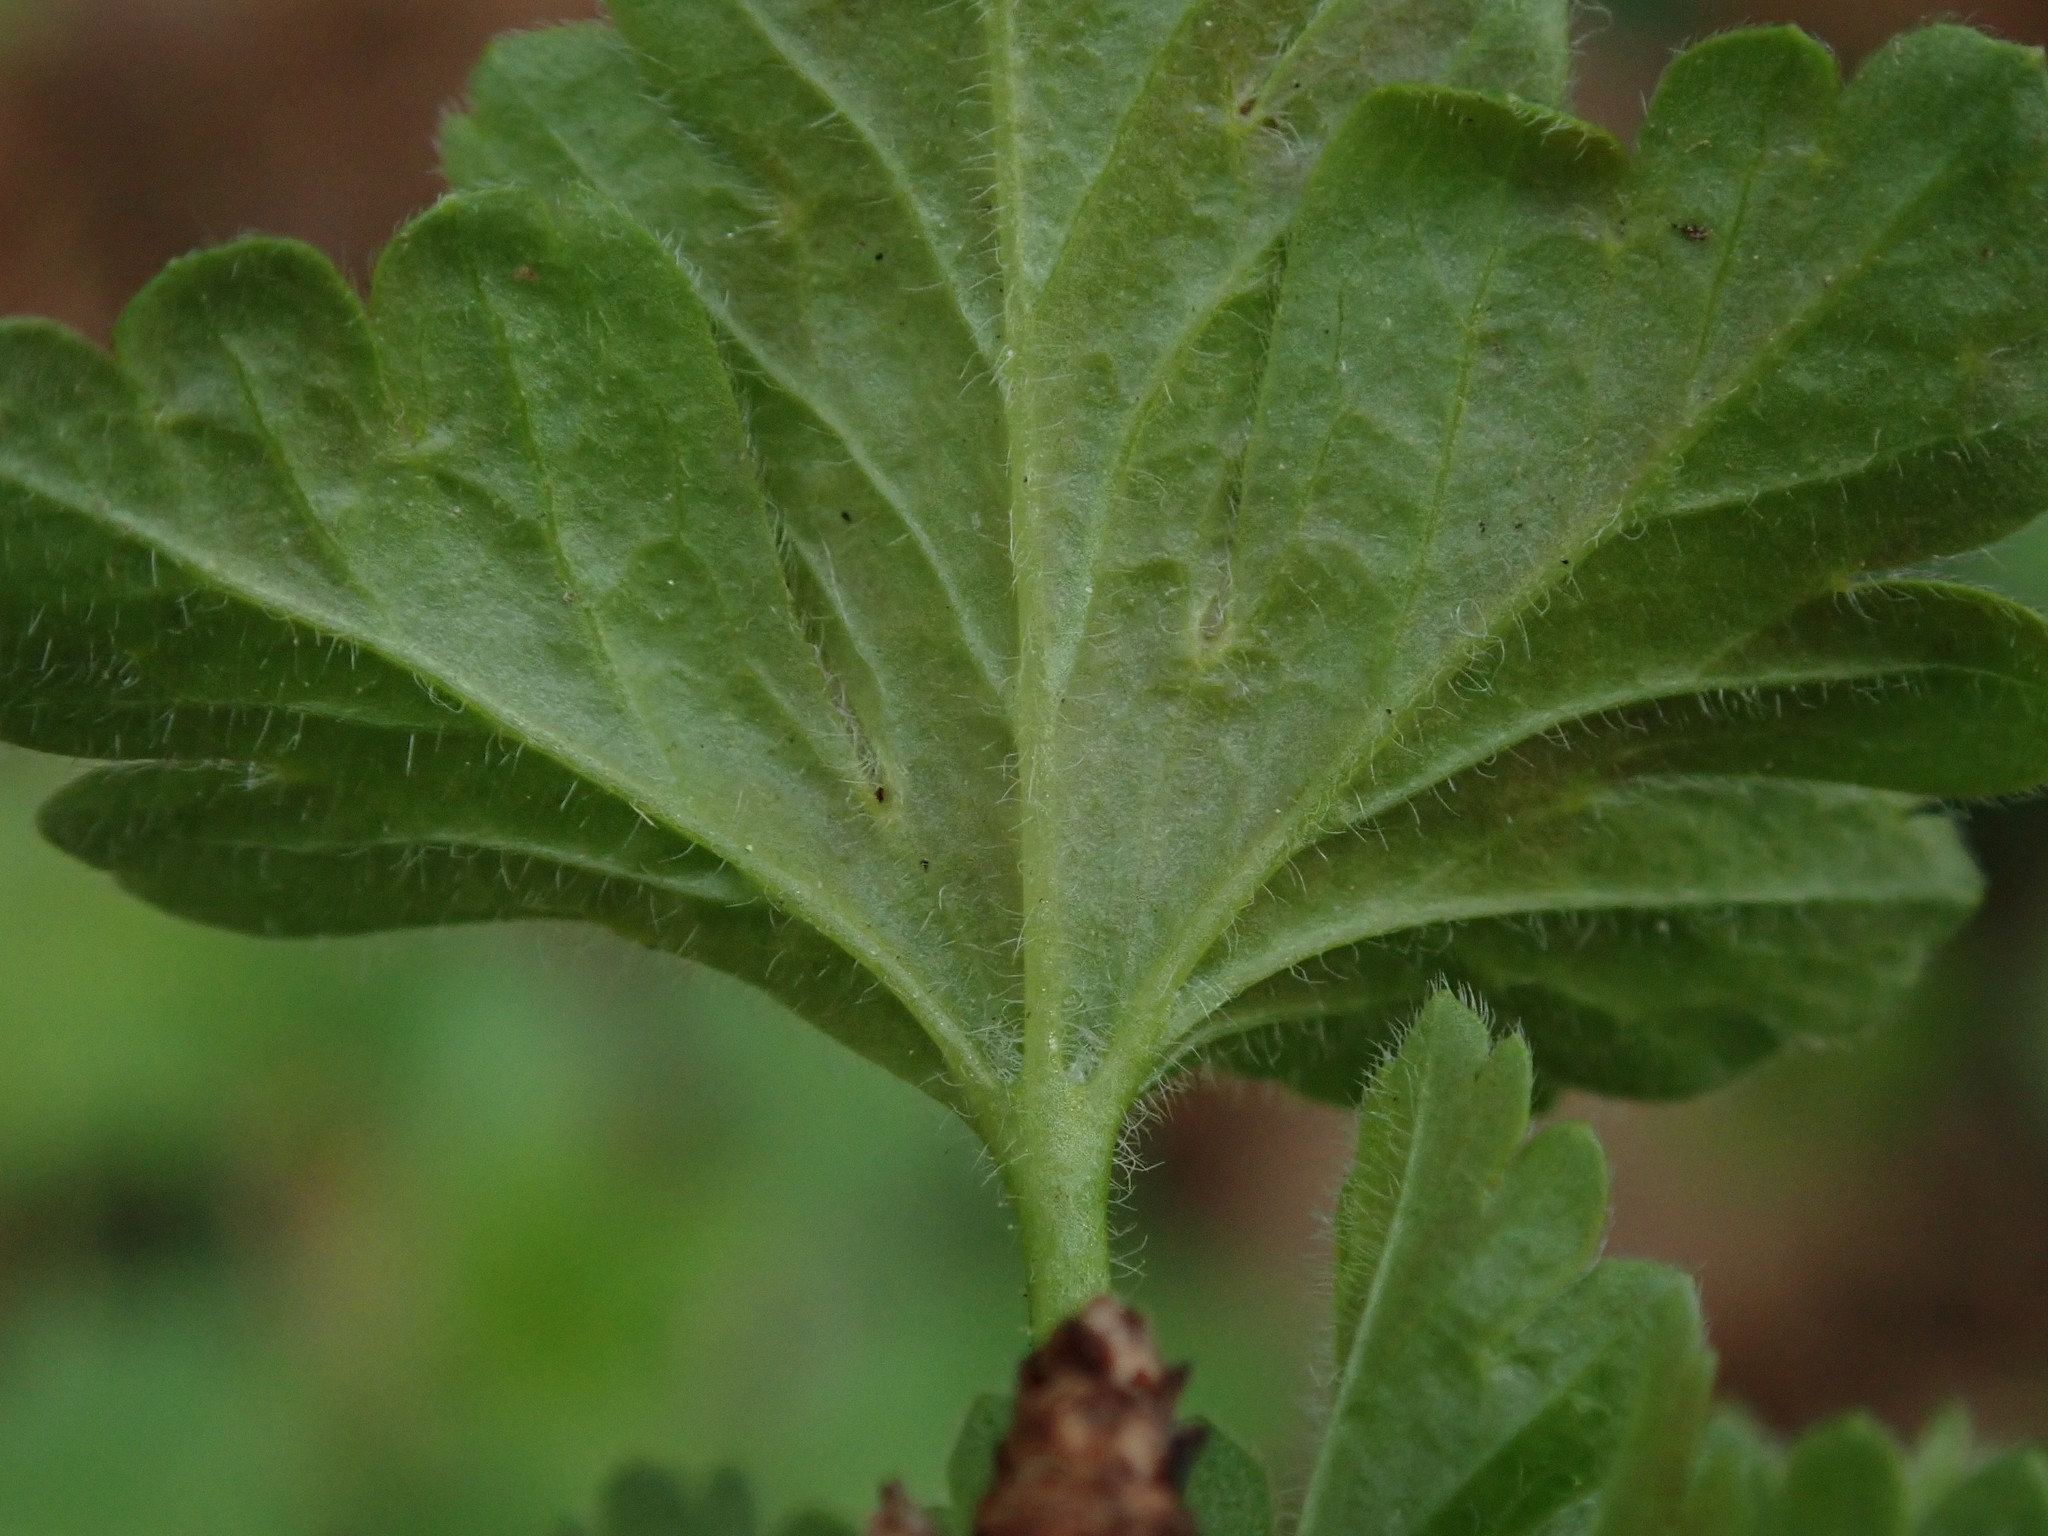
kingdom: Plantae
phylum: Tracheophyta
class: Magnoliopsida
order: Saxifragales
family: Grossulariaceae
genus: Ribes
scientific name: Ribes uva-crispa
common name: Gooseberry
